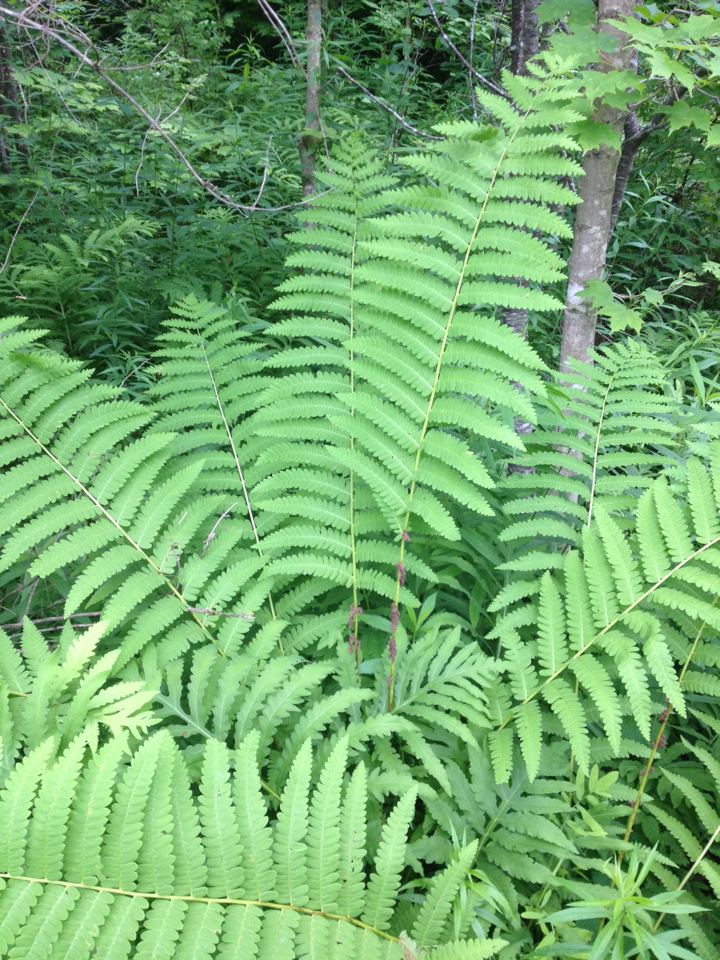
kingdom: Plantae
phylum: Tracheophyta
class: Polypodiopsida
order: Osmundales
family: Osmundaceae
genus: Claytosmunda
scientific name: Claytosmunda claytoniana
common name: Clayton's fern
